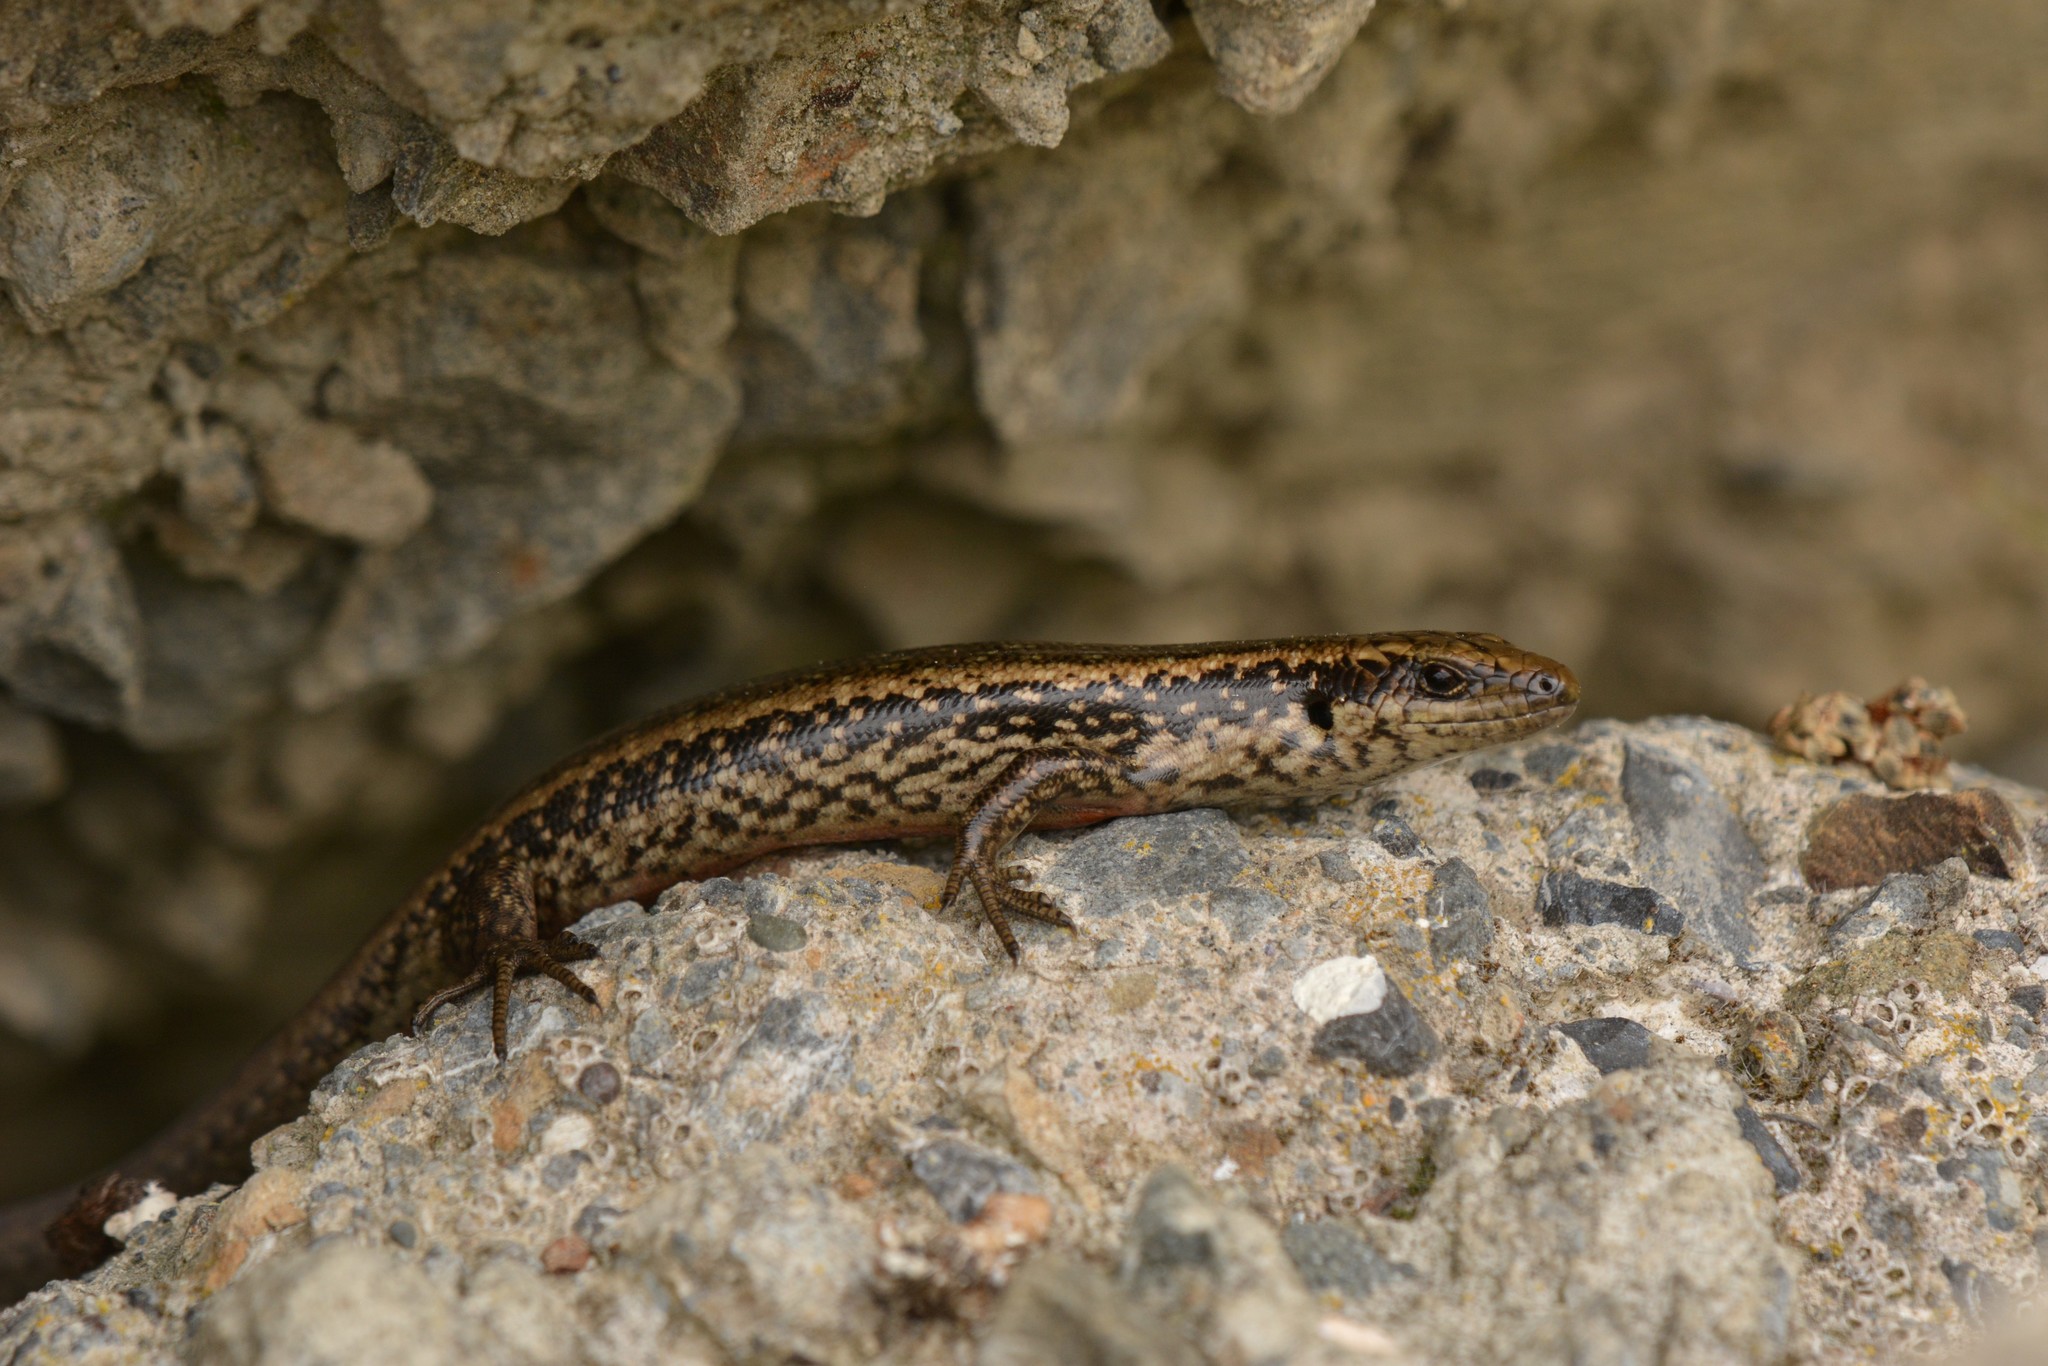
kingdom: Animalia
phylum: Chordata
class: Squamata
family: Scincidae
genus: Oligosoma
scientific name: Oligosoma kokowai
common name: Northern spotted skink
